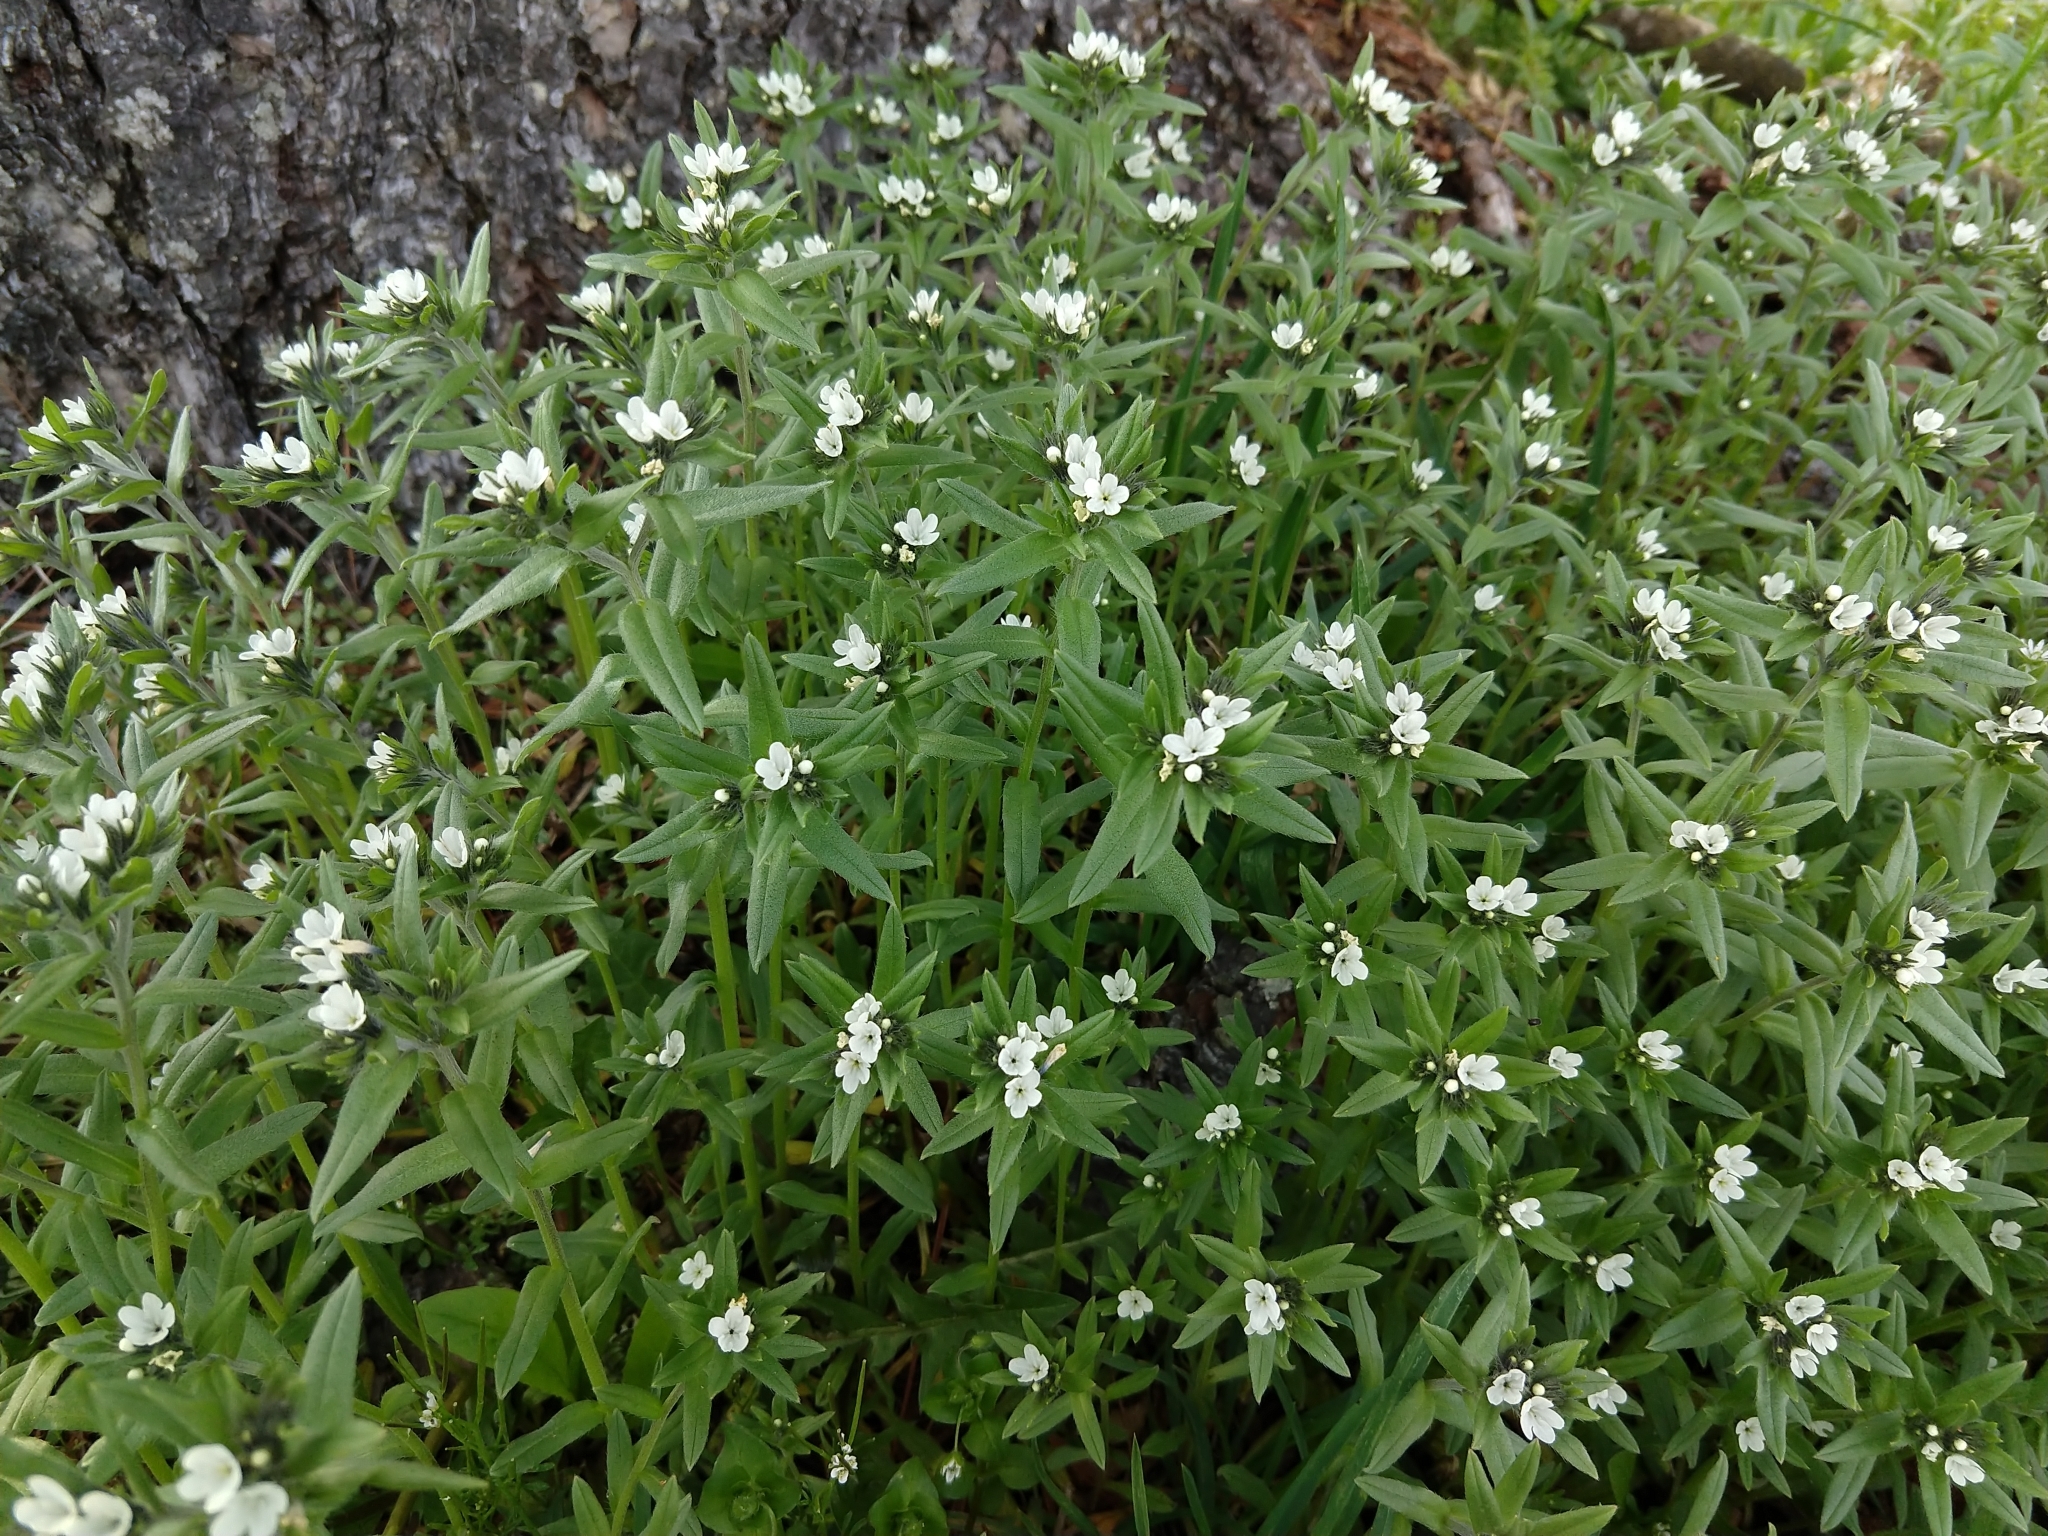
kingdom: Plantae
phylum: Tracheophyta
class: Magnoliopsida
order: Boraginales
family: Boraginaceae
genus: Buglossoides
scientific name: Buglossoides arvensis
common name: Corn gromwell
